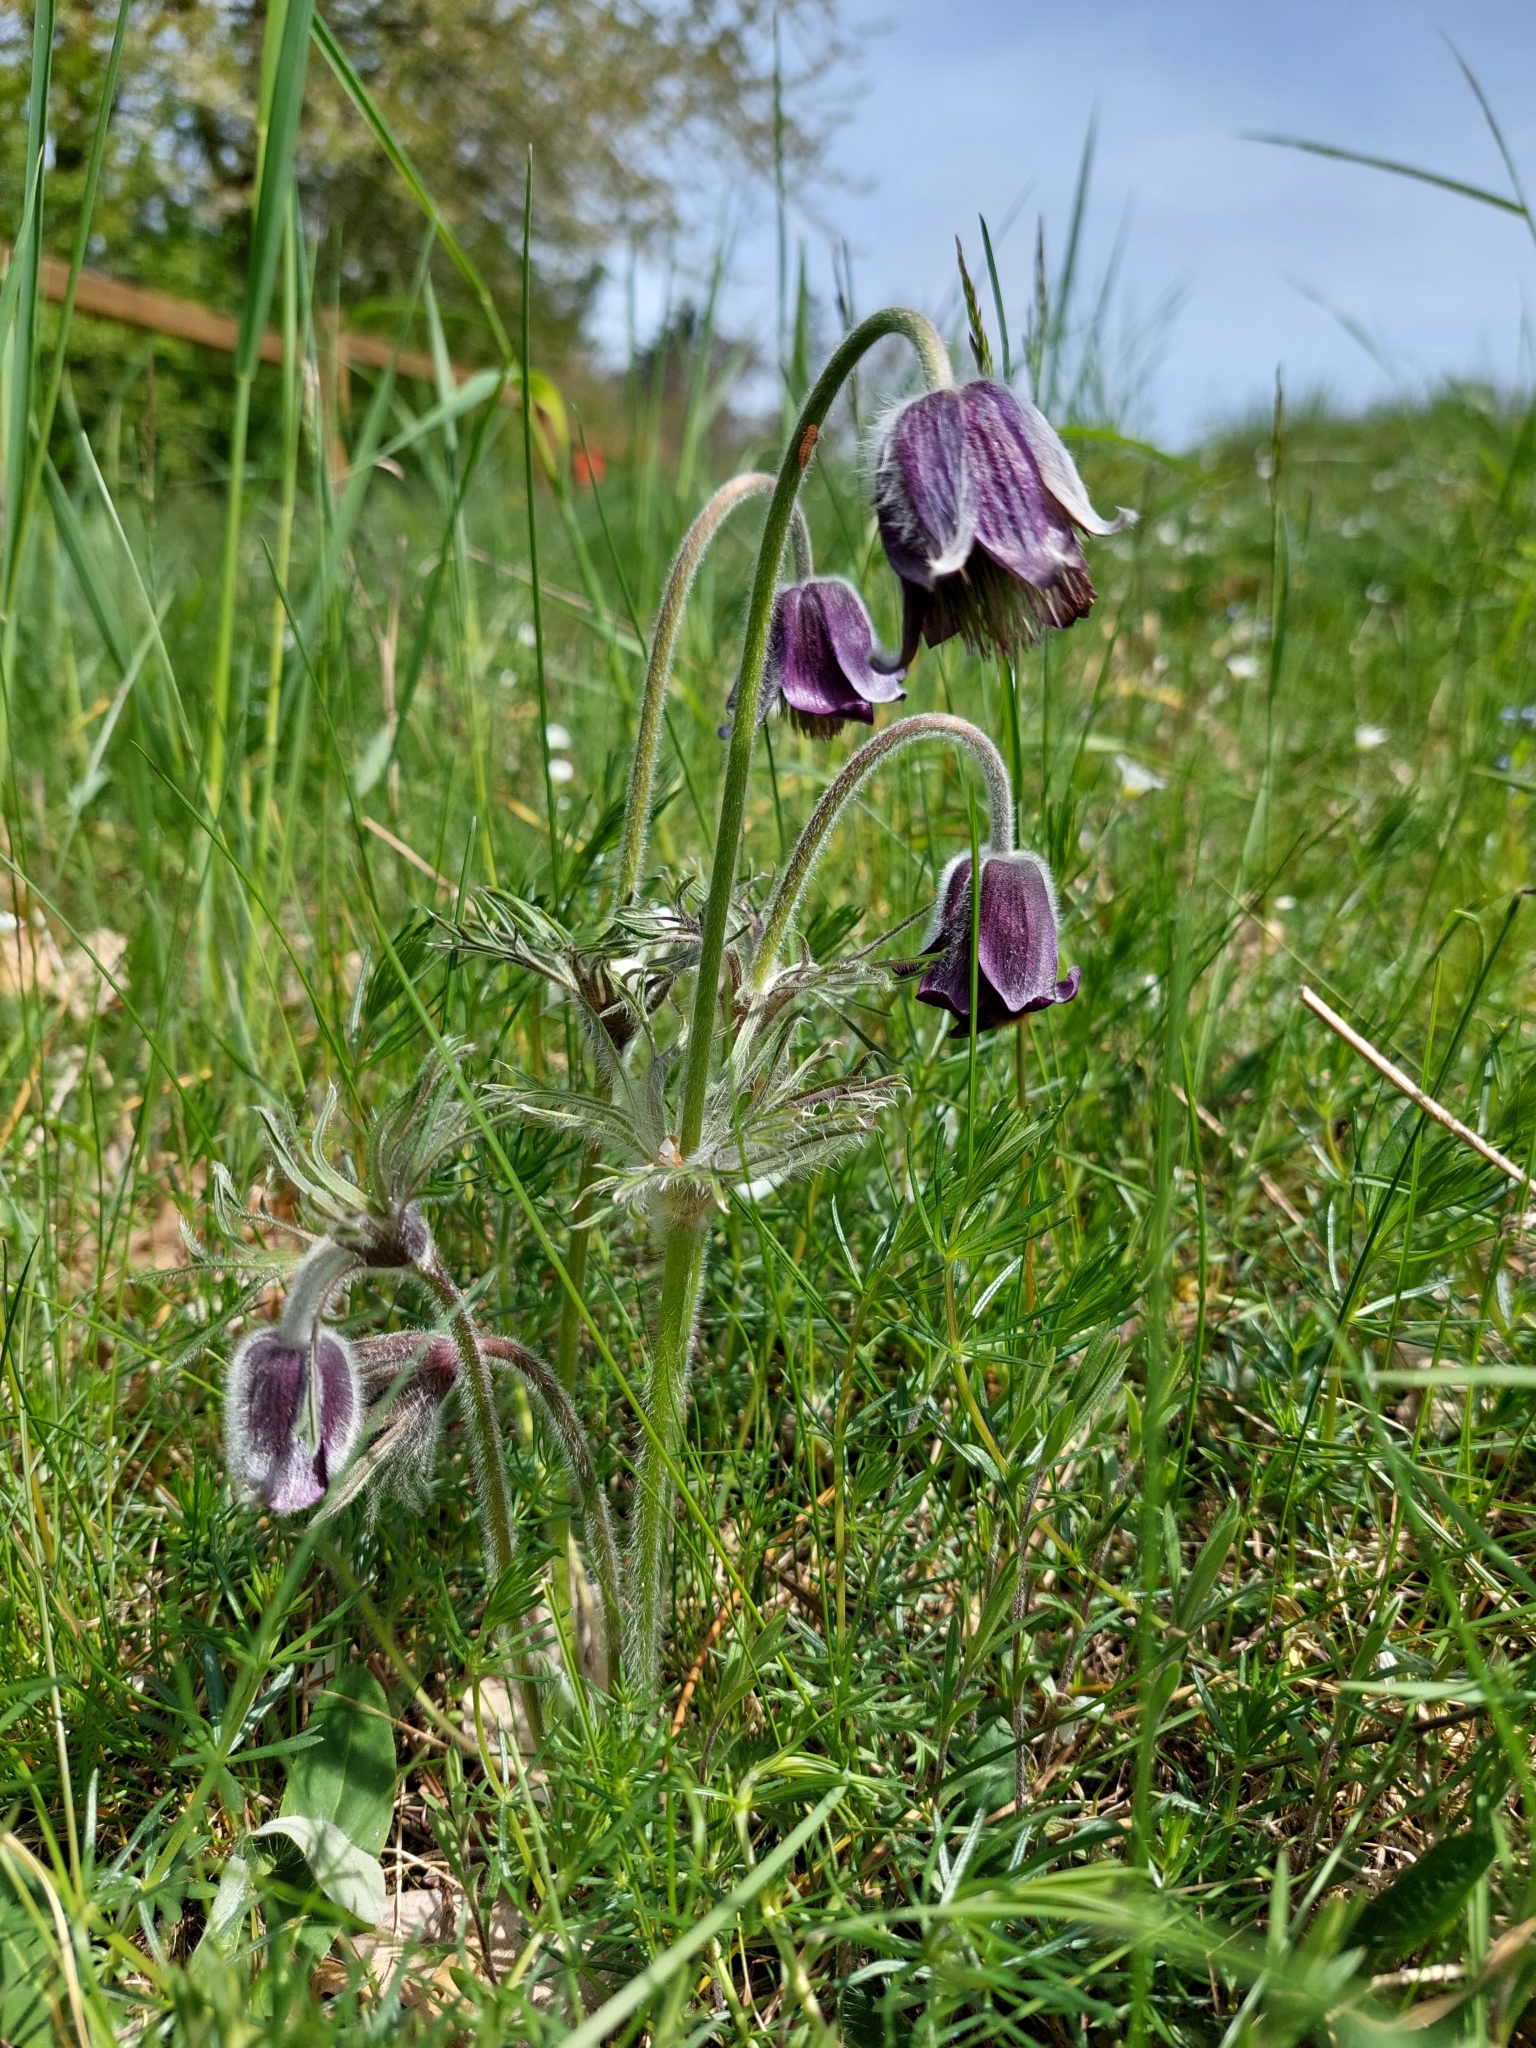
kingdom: Plantae
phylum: Tracheophyta
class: Magnoliopsida
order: Ranunculales
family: Ranunculaceae
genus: Pulsatilla
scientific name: Pulsatilla pratensis
